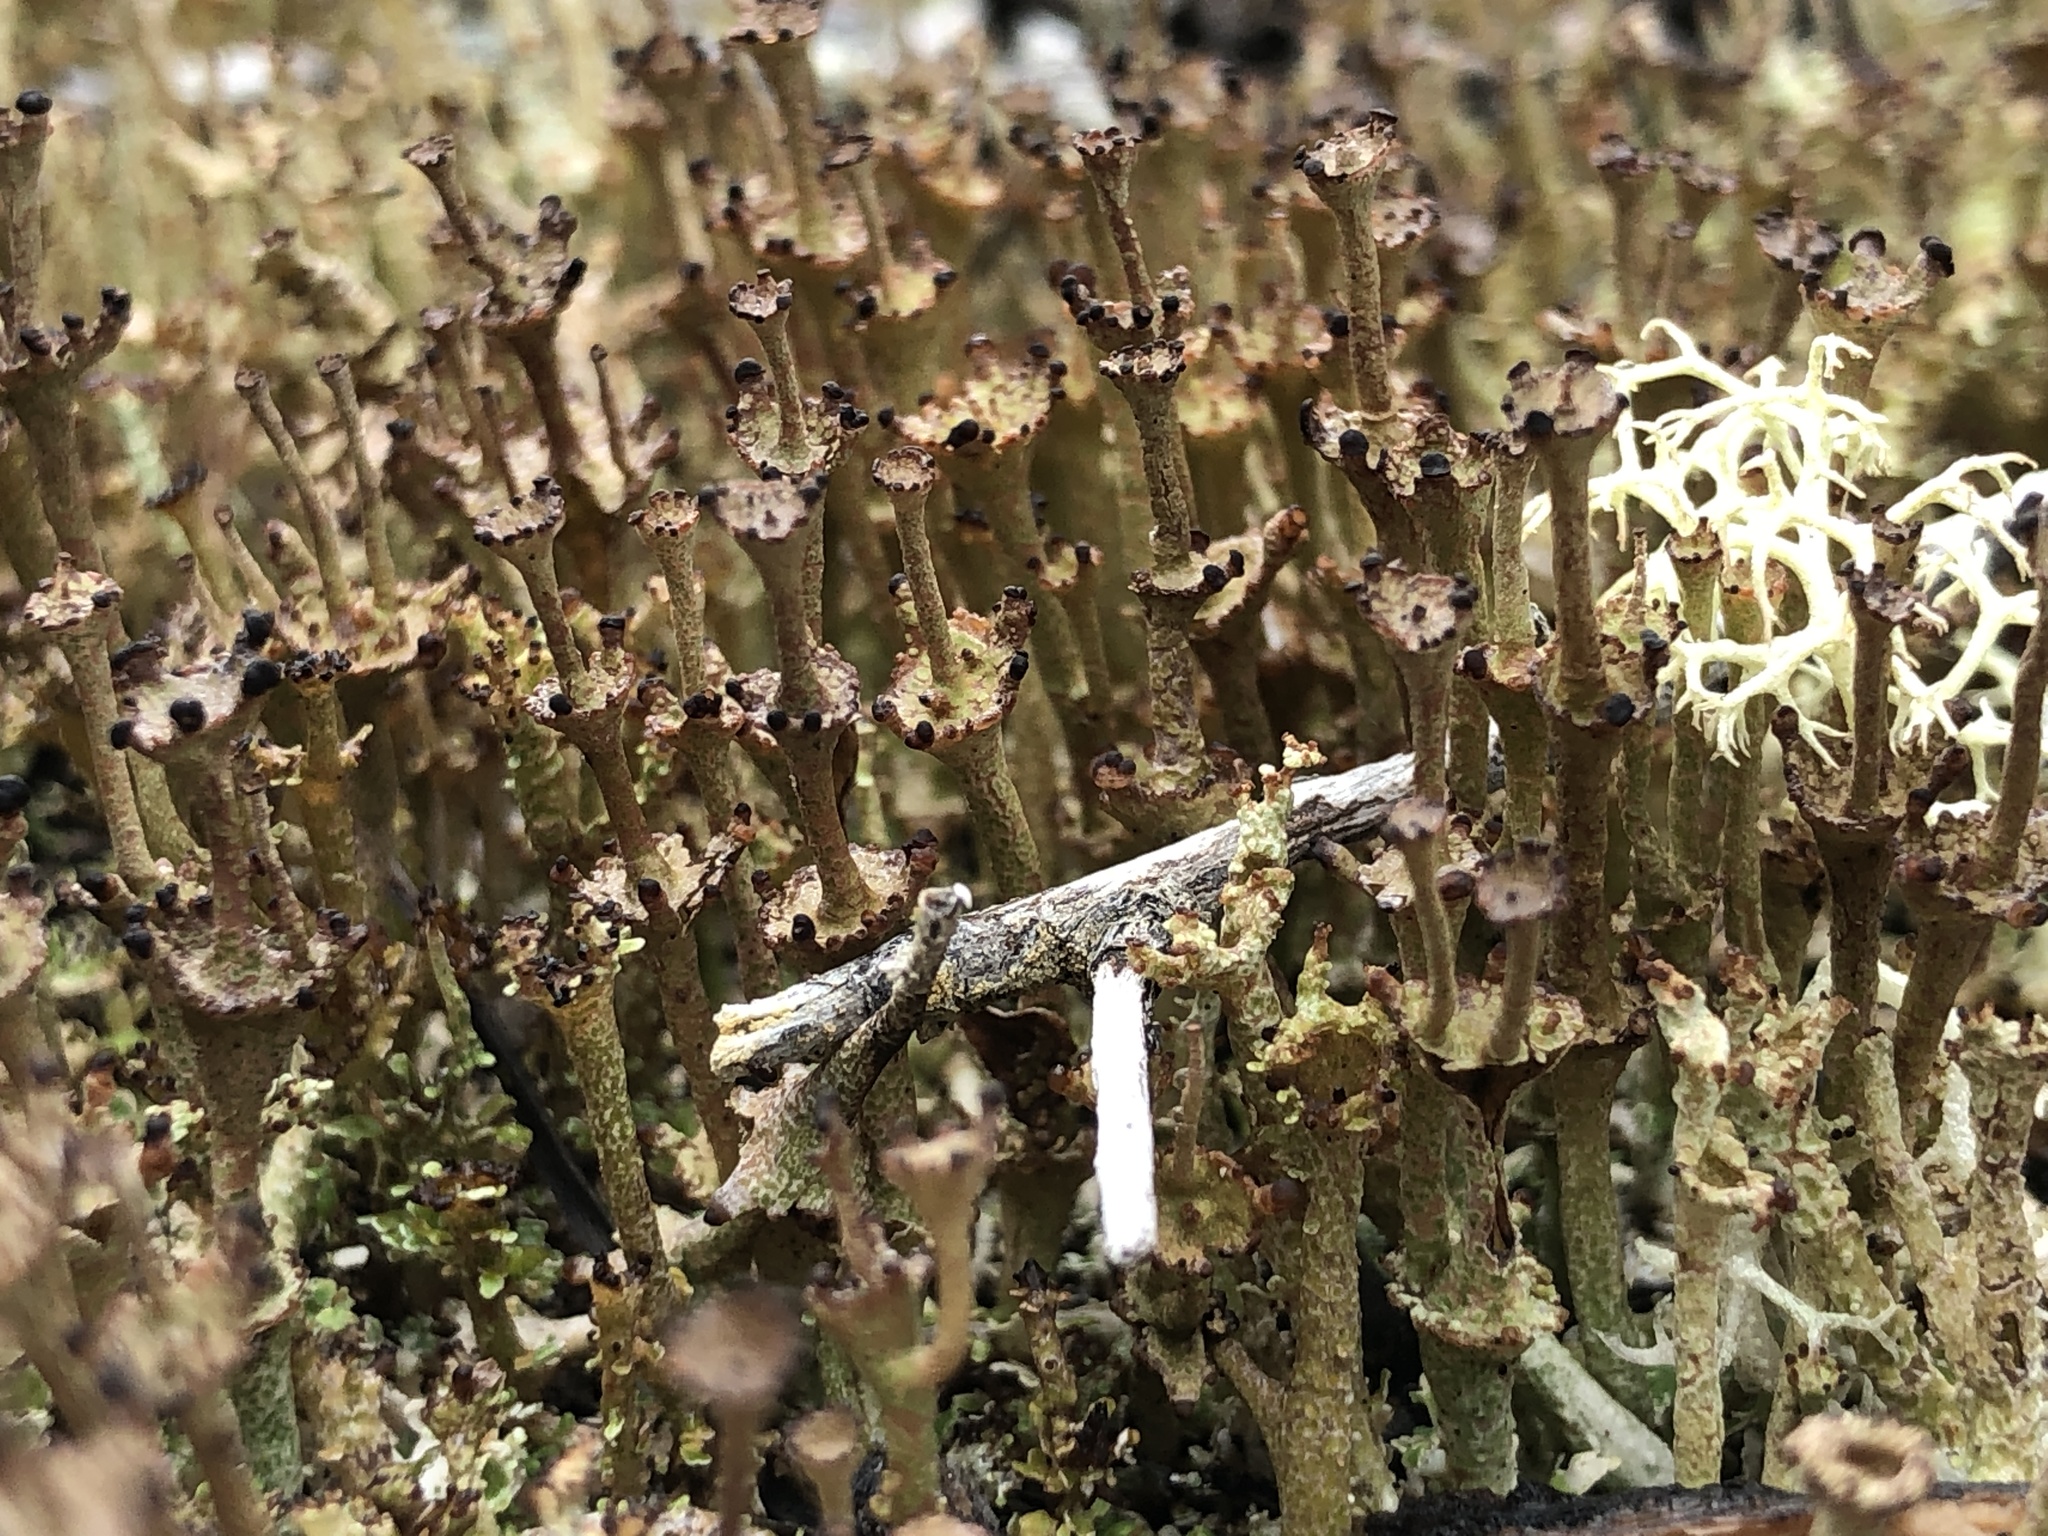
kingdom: Fungi
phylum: Ascomycota
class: Lecanoromycetes
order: Lecanorales
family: Cladoniaceae
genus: Cladonia
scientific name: Cladonia cervicornis
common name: Browned pixie-cup lichen
